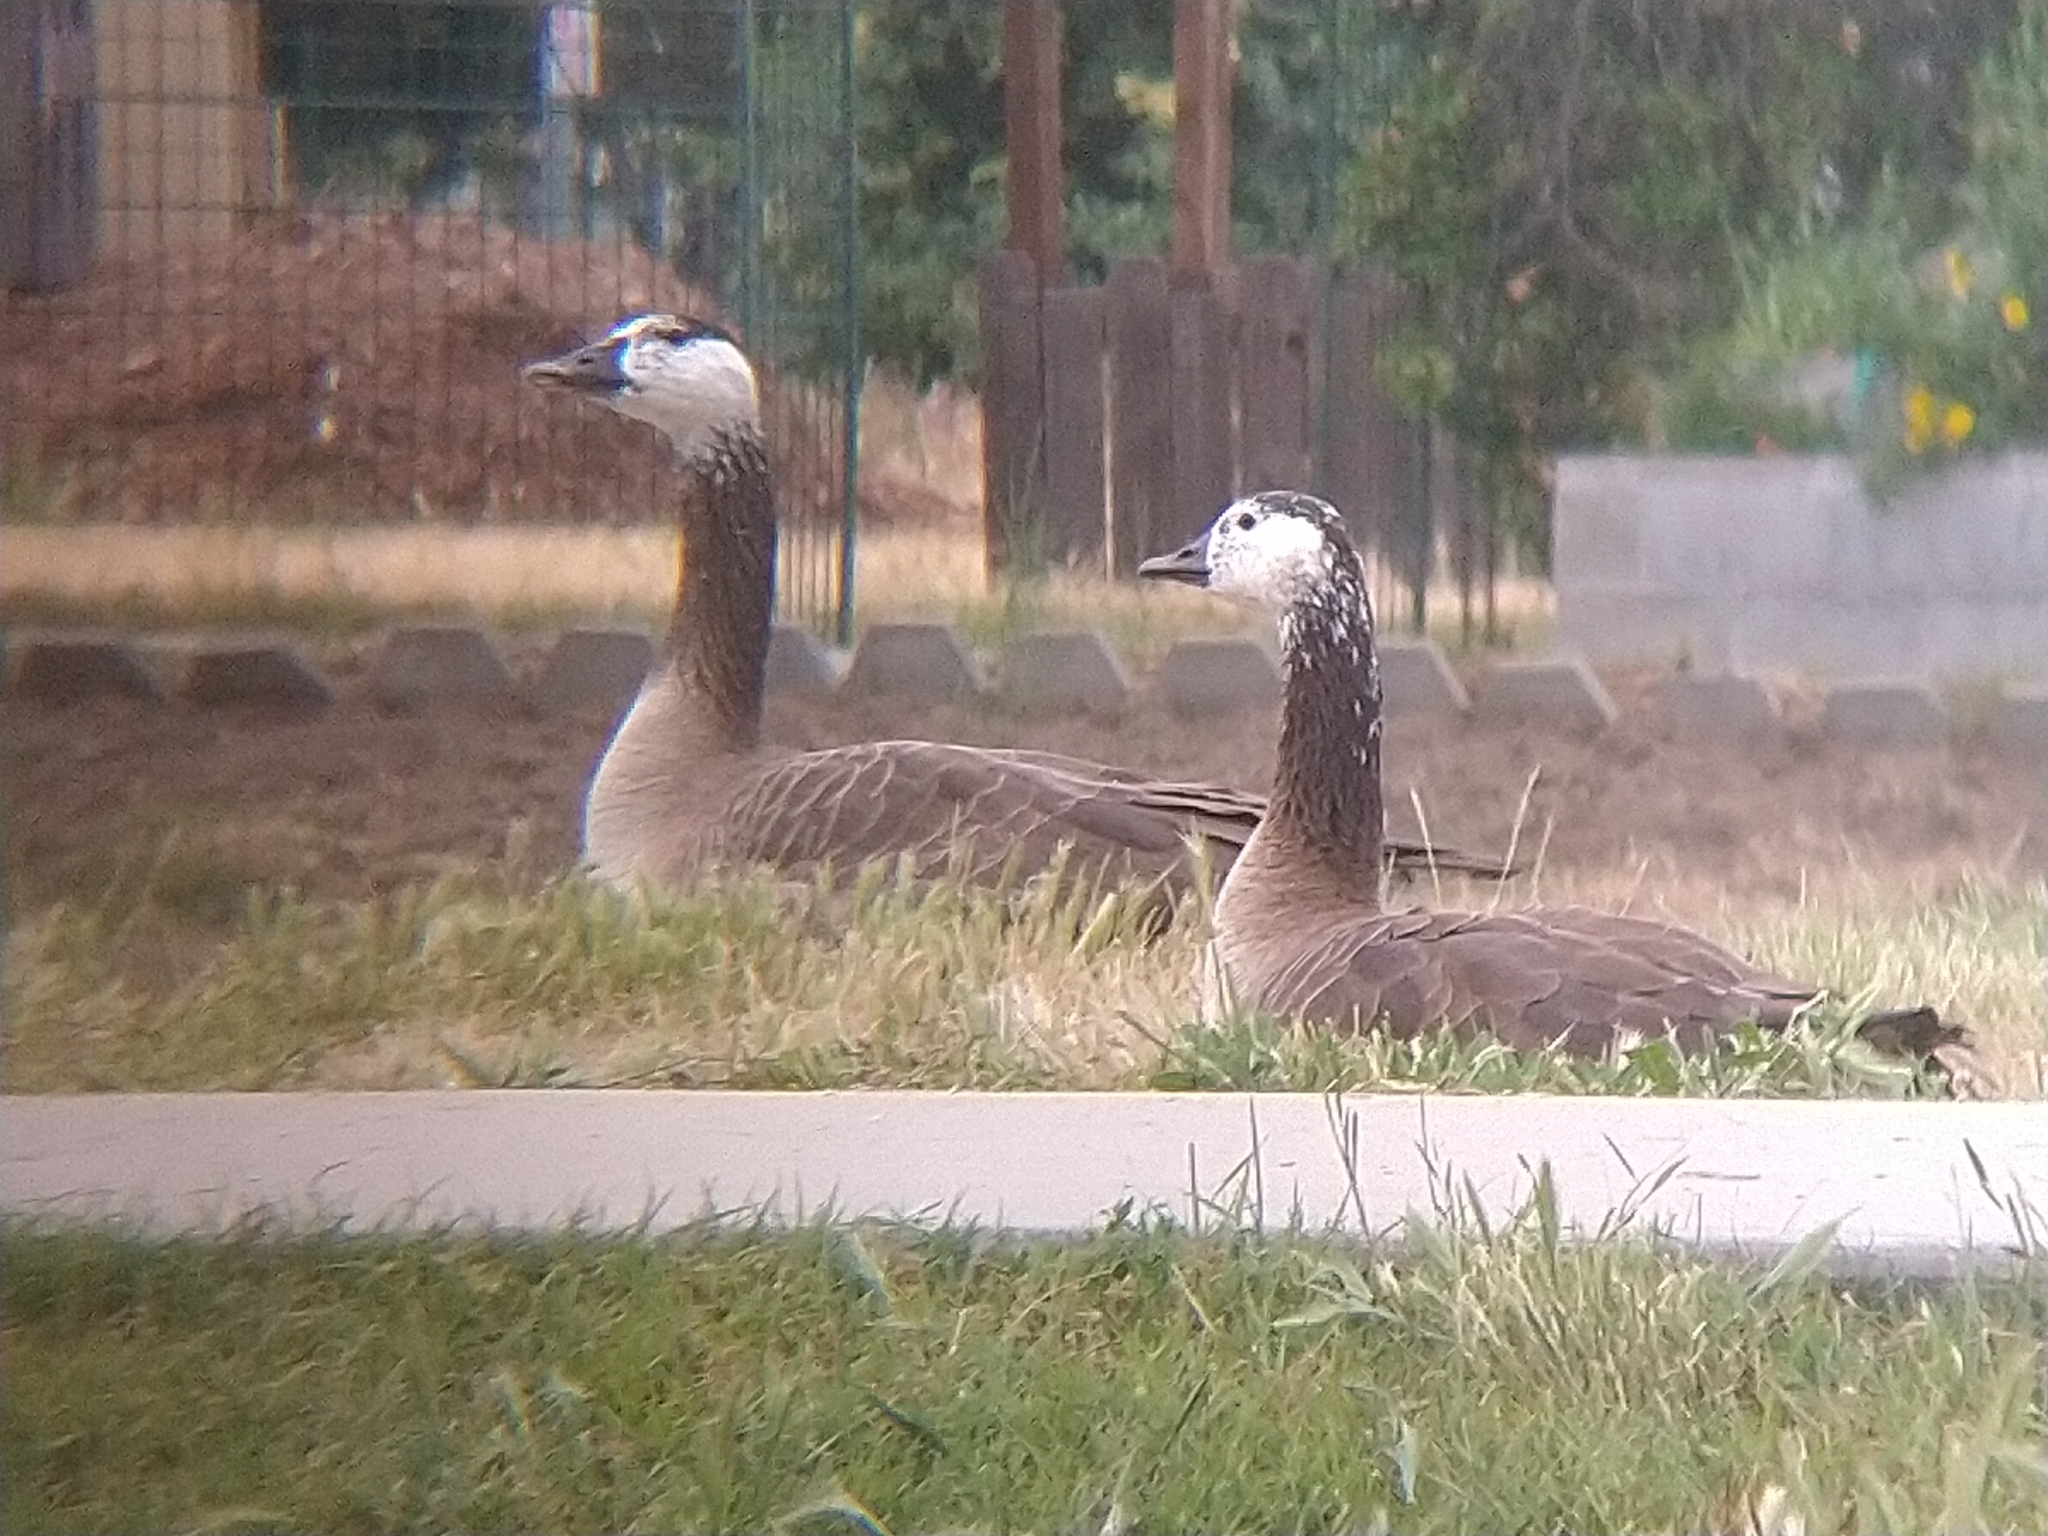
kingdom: Animalia
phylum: Chordata
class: Aves
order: Anseriformes
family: Anatidae
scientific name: Anatidae
